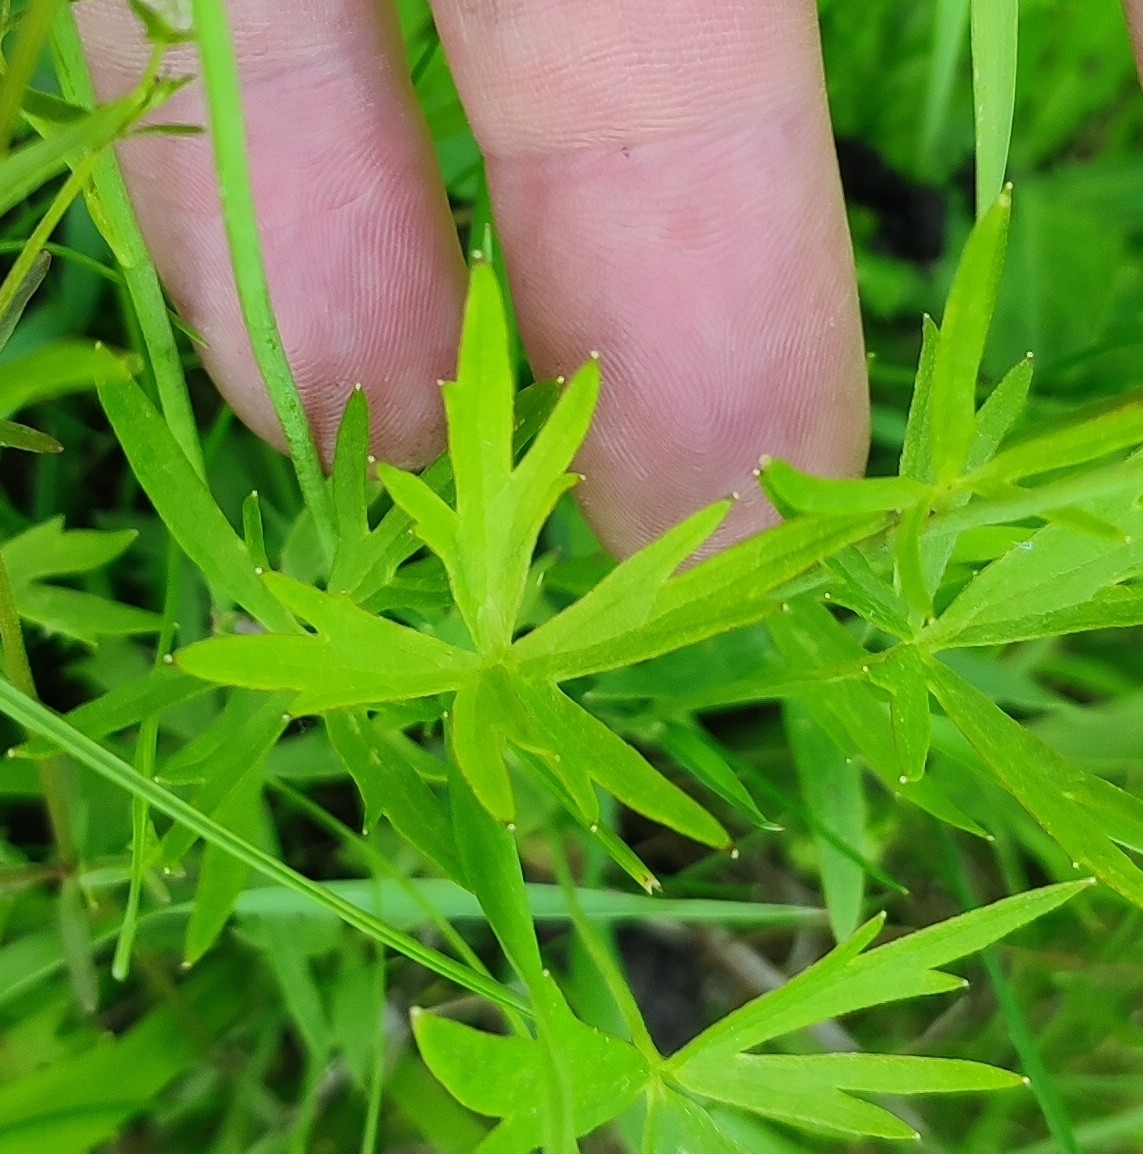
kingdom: Plantae
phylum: Tracheophyta
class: Magnoliopsida
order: Ranunculales
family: Ranunculaceae
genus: Ranunculus
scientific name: Ranunculus acris
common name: Meadow buttercup
